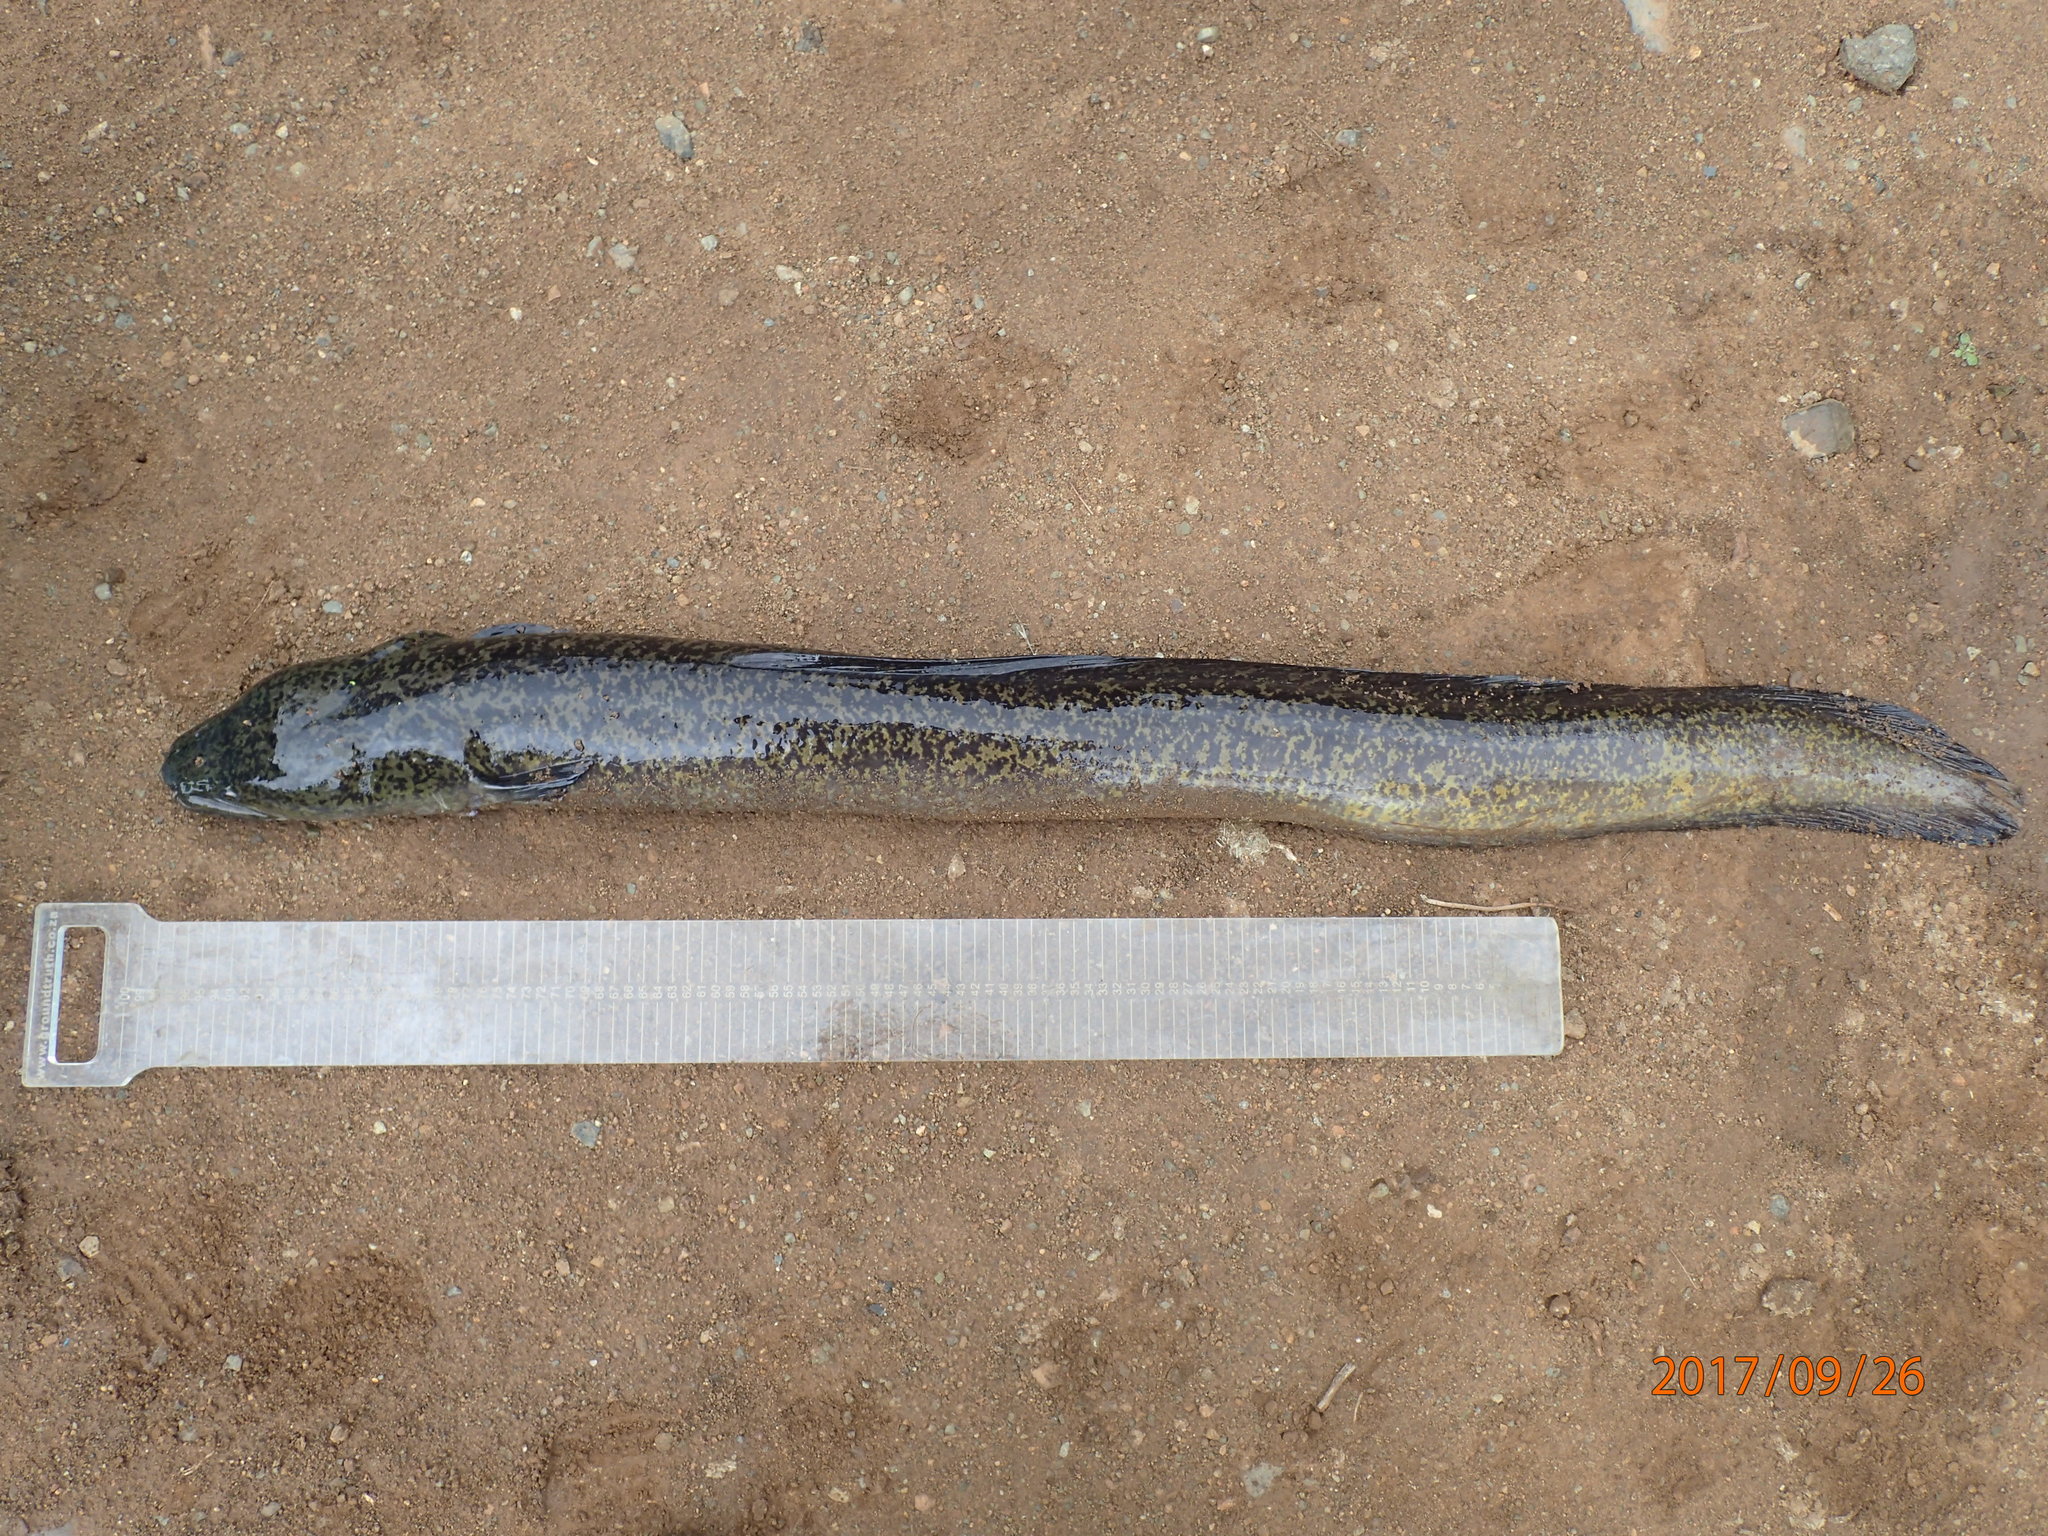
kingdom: Animalia
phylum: Chordata
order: Anguilliformes
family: Anguillidae
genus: Anguilla
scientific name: Anguilla marmorata
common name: Giant mottled eel
